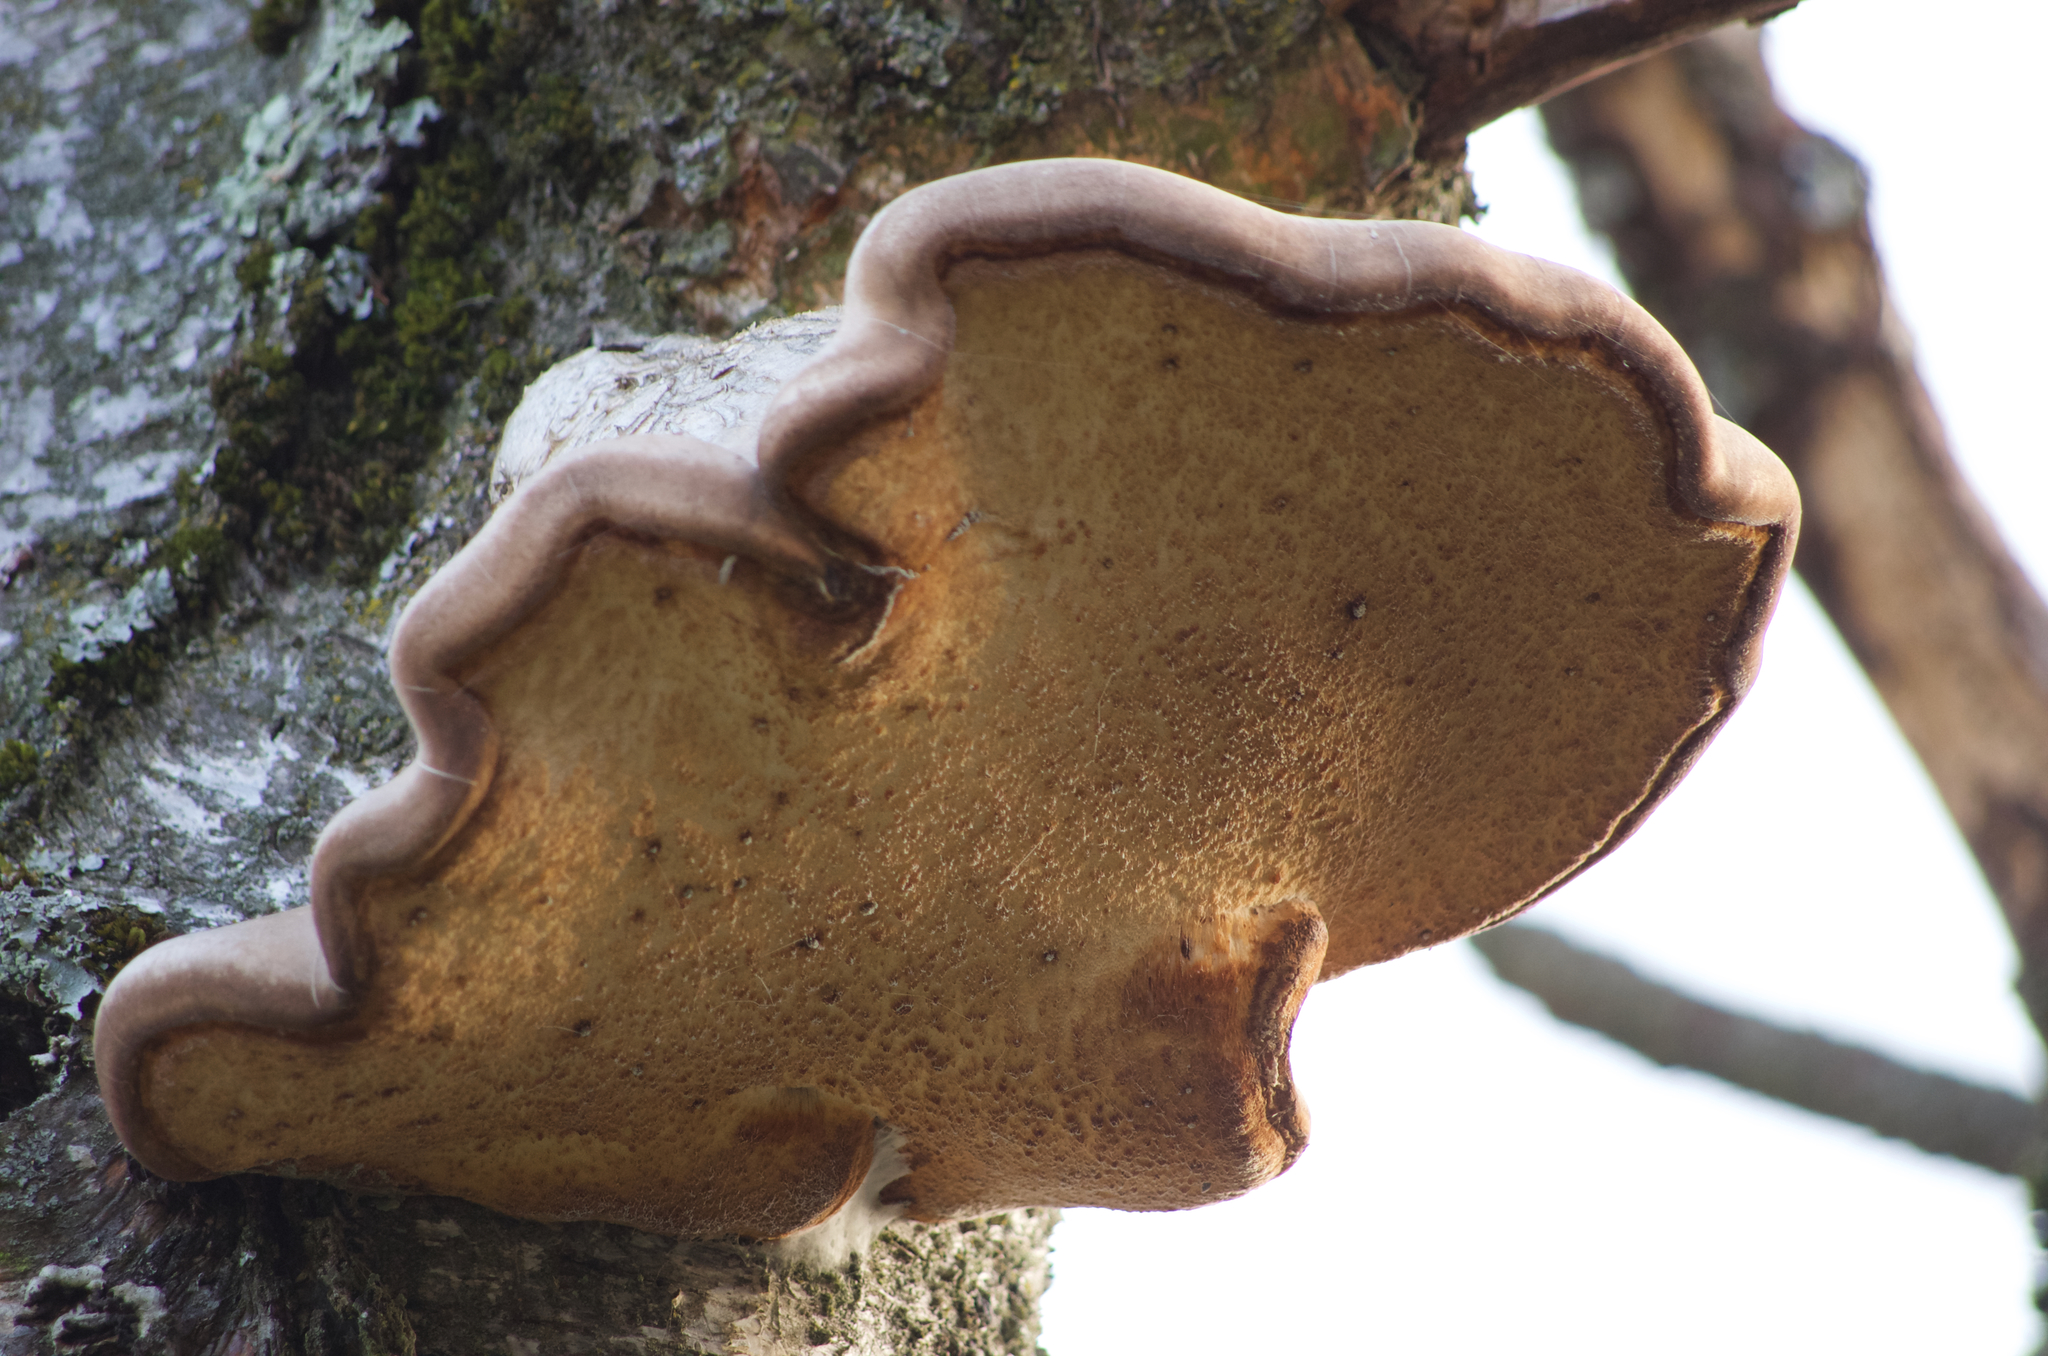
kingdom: Fungi
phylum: Basidiomycota
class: Agaricomycetes
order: Polyporales
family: Fomitopsidaceae
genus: Fomitopsis
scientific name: Fomitopsis betulina
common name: Birch polypore
